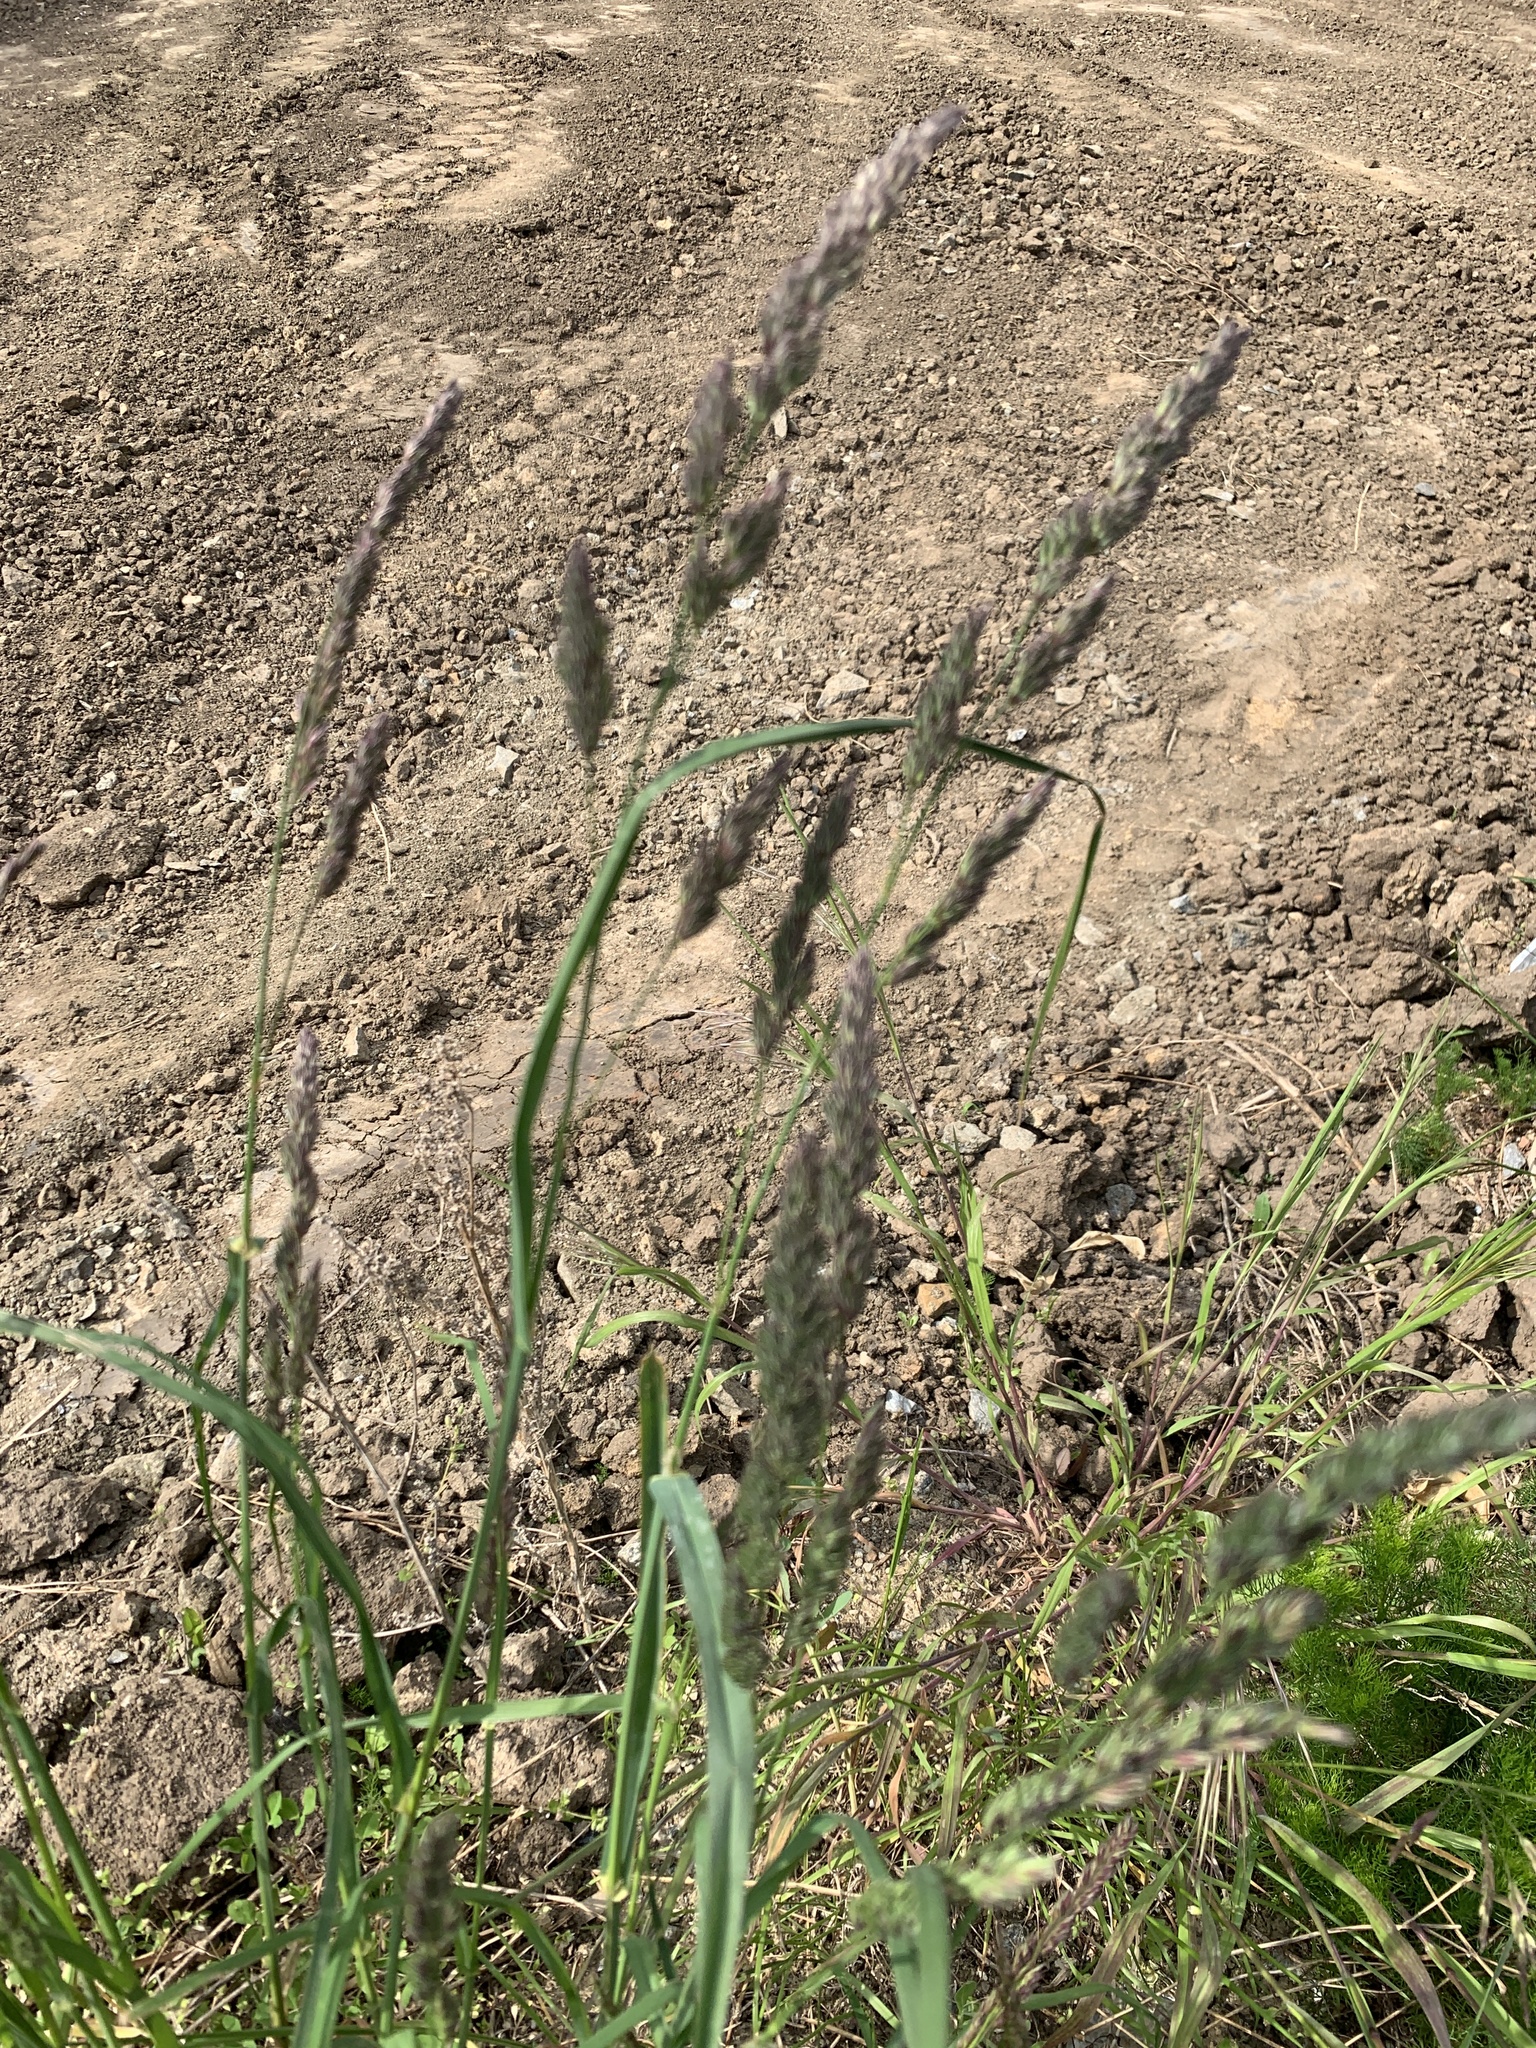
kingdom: Plantae
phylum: Tracheophyta
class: Liliopsida
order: Poales
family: Poaceae
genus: Dactylis
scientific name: Dactylis glomerata
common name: Orchardgrass
